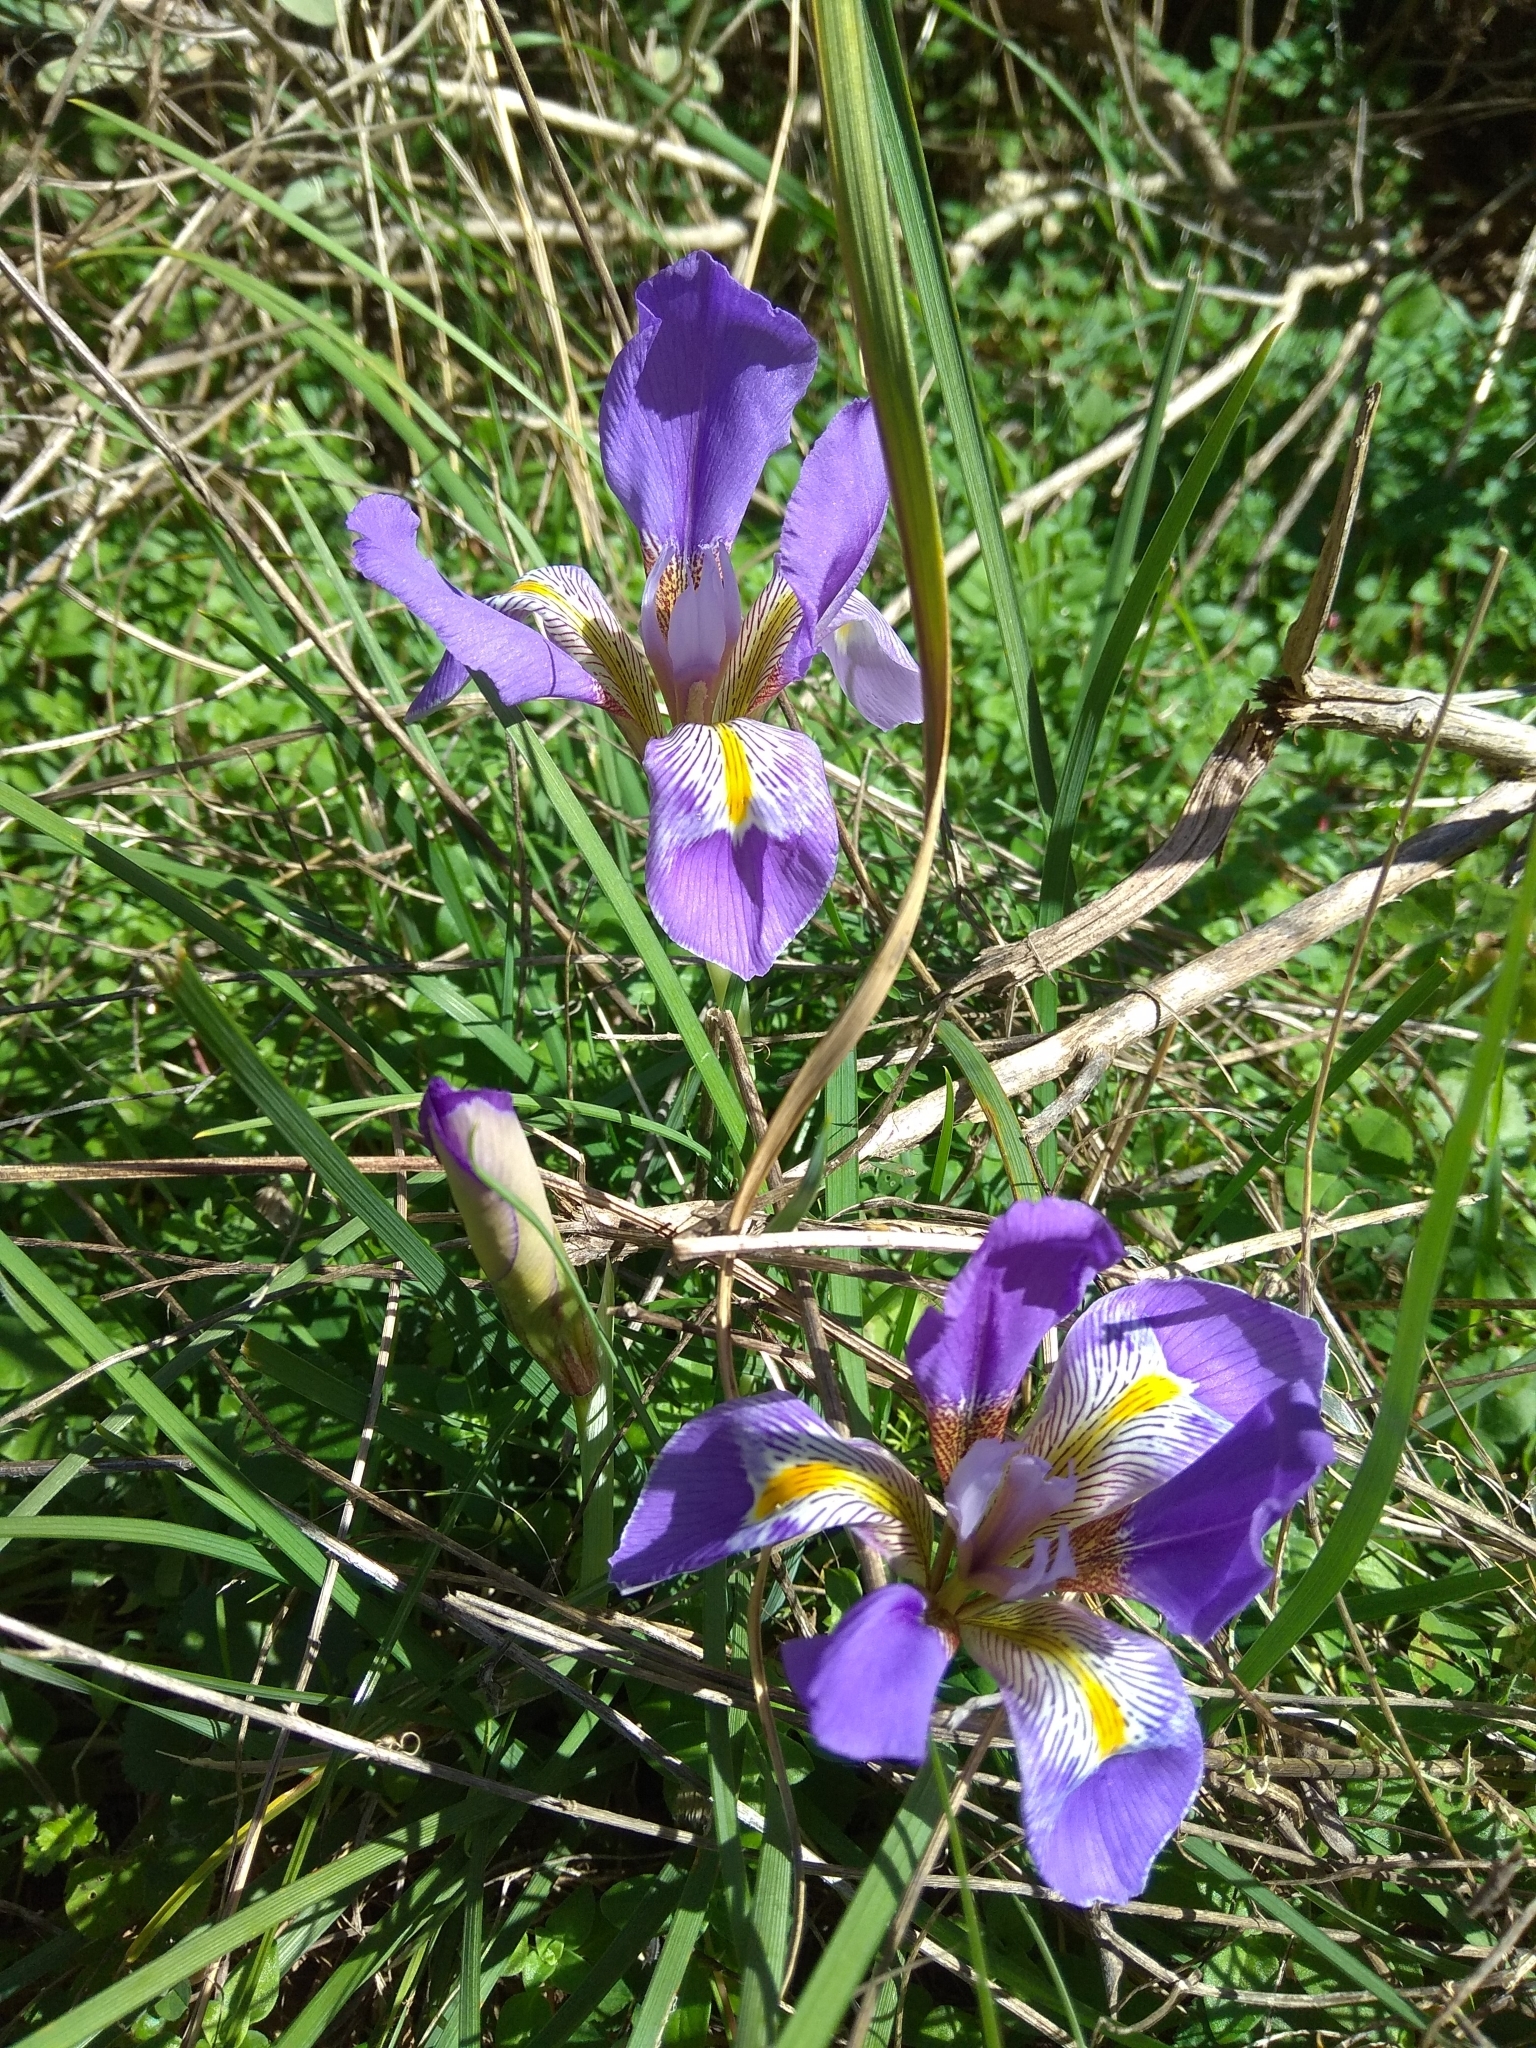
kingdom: Plantae
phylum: Tracheophyta
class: Liliopsida
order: Asparagales
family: Iridaceae
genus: Iris
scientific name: Iris unguicularis
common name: Algerian iris
